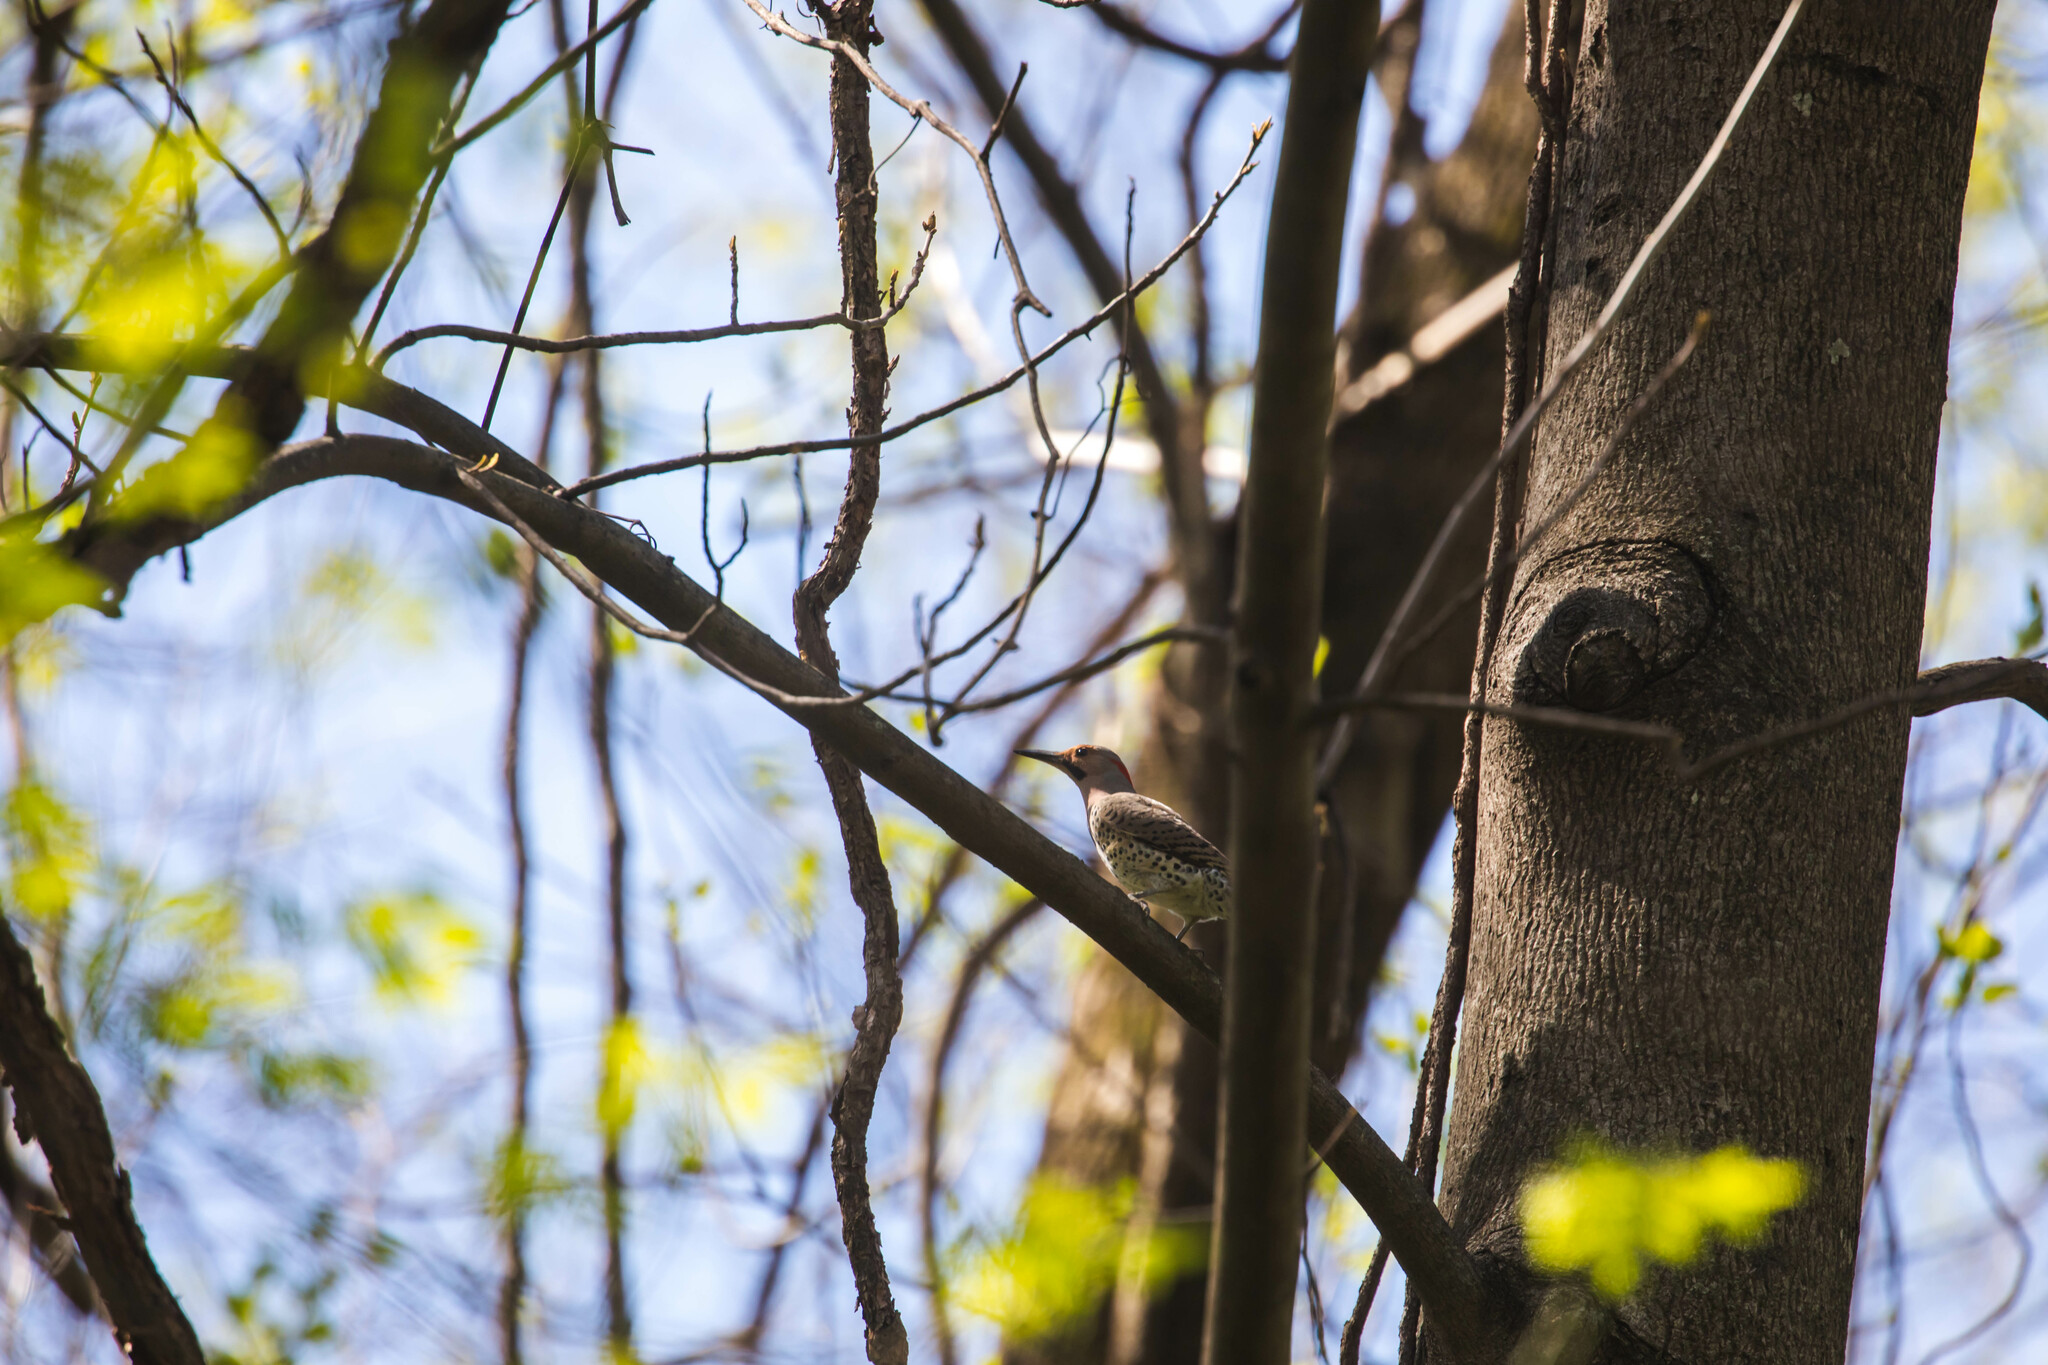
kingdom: Animalia
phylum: Chordata
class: Aves
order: Piciformes
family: Picidae
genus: Colaptes
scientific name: Colaptes auratus
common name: Northern flicker
